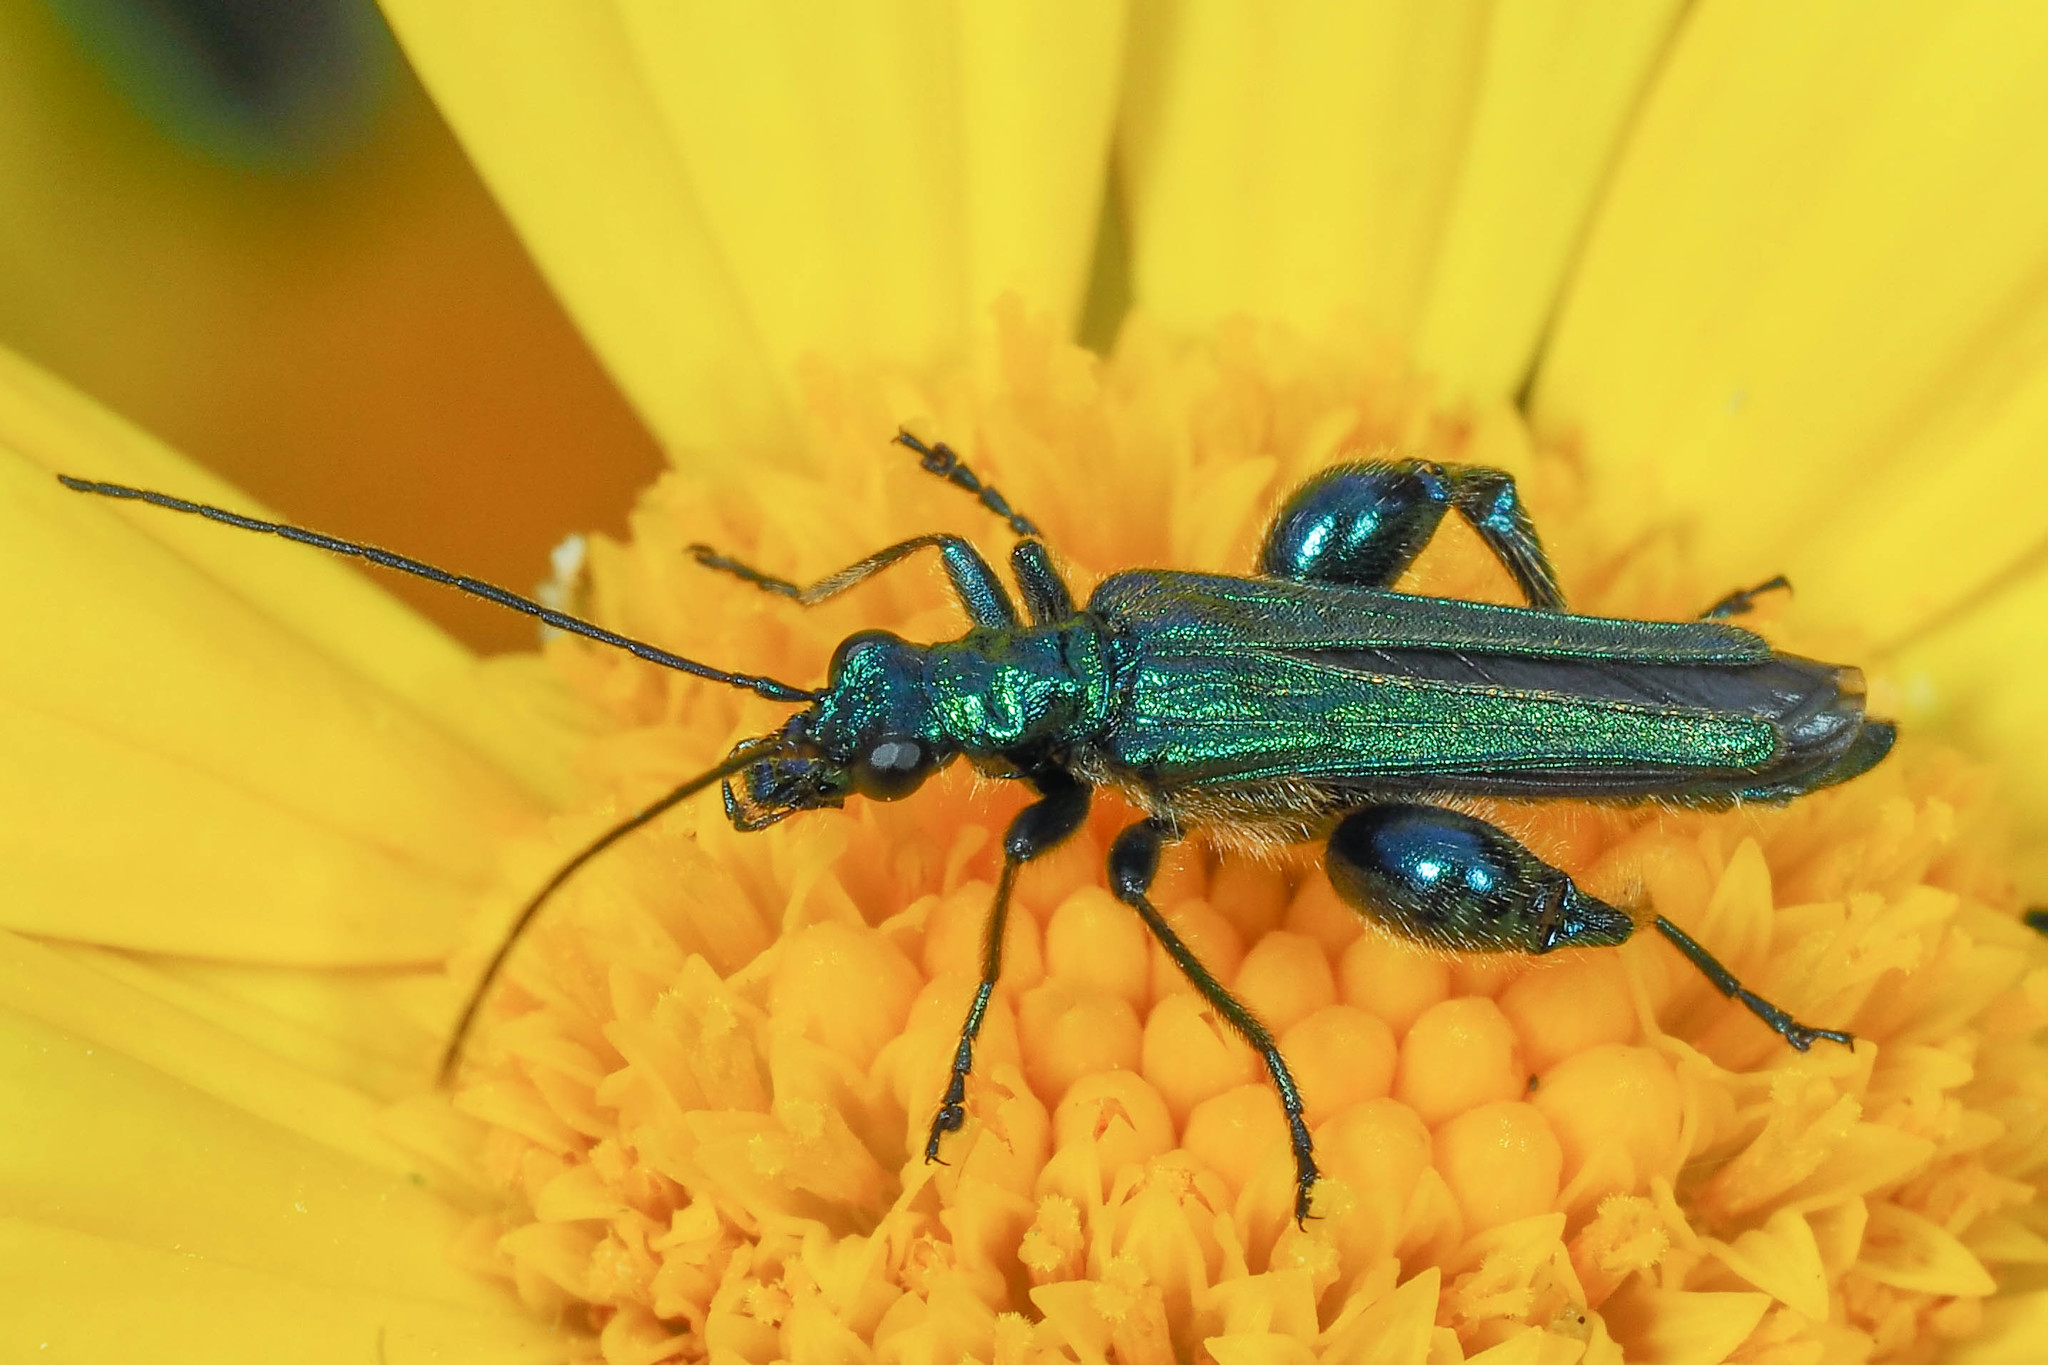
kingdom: Animalia
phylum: Arthropoda
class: Insecta
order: Coleoptera
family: Oedemeridae
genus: Oedemera
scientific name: Oedemera nobilis
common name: Swollen-thighed beetle
